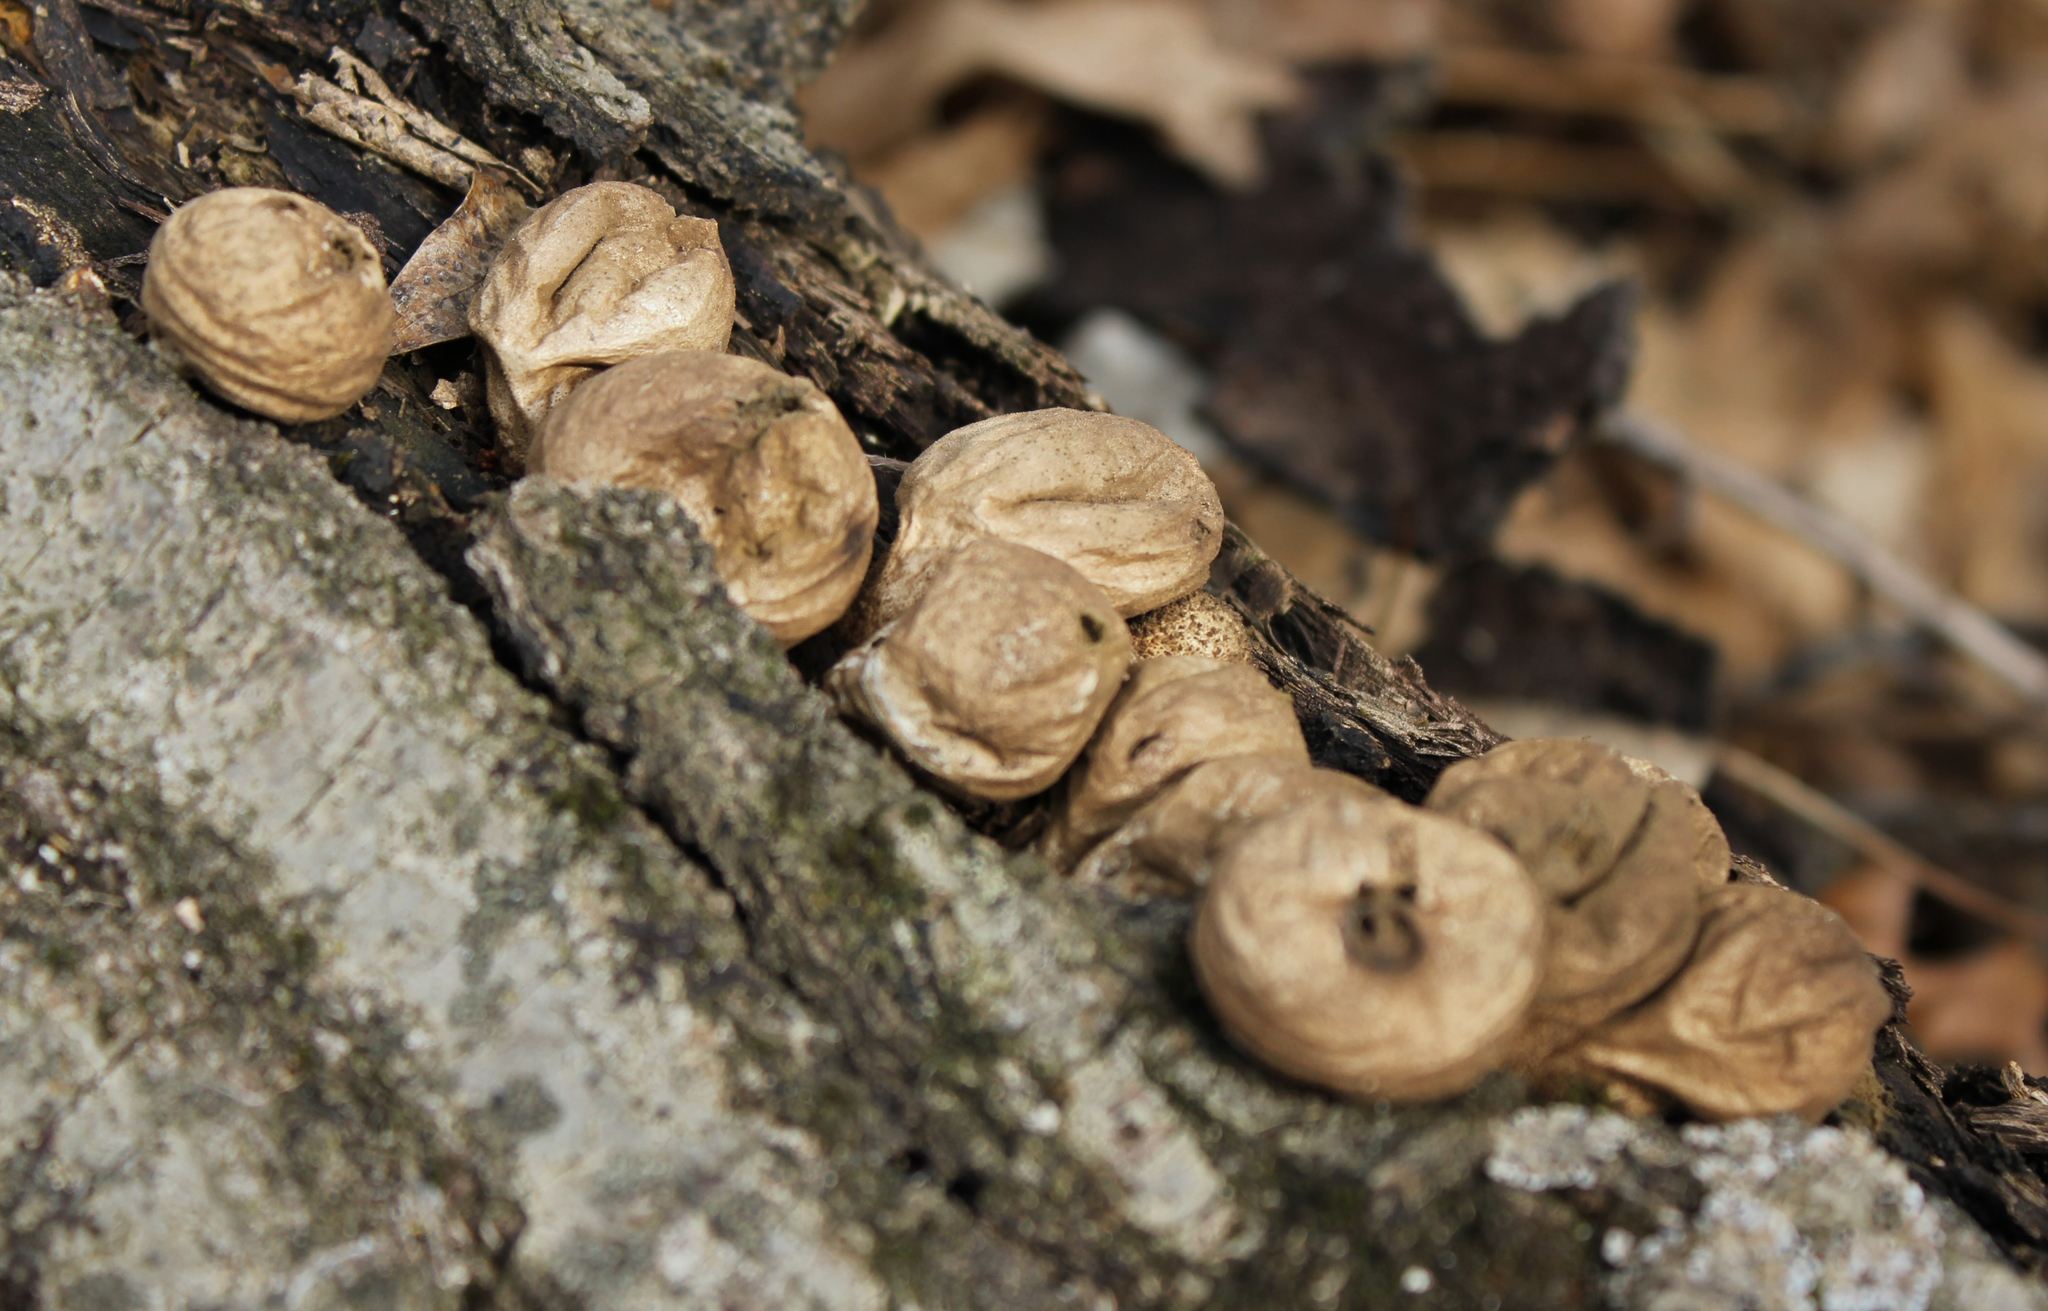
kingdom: Fungi
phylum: Basidiomycota
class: Agaricomycetes
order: Agaricales
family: Lycoperdaceae
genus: Apioperdon
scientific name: Apioperdon pyriforme
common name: Pear-shaped puffball
